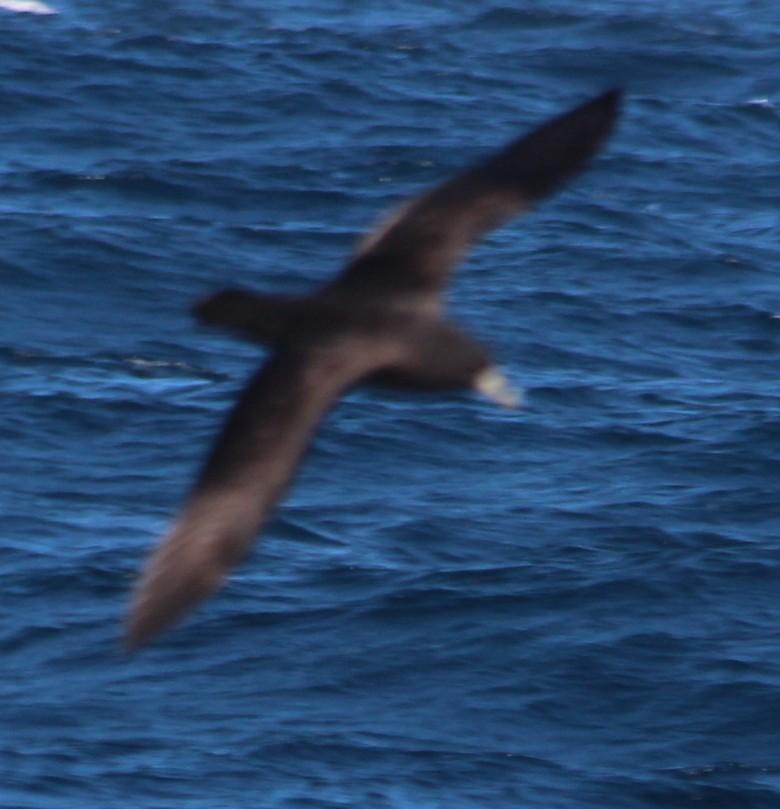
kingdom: Animalia
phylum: Chordata
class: Aves
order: Procellariiformes
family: Procellariidae
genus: Procellaria
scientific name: Procellaria aequinoctialis
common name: White-chinned petrel
